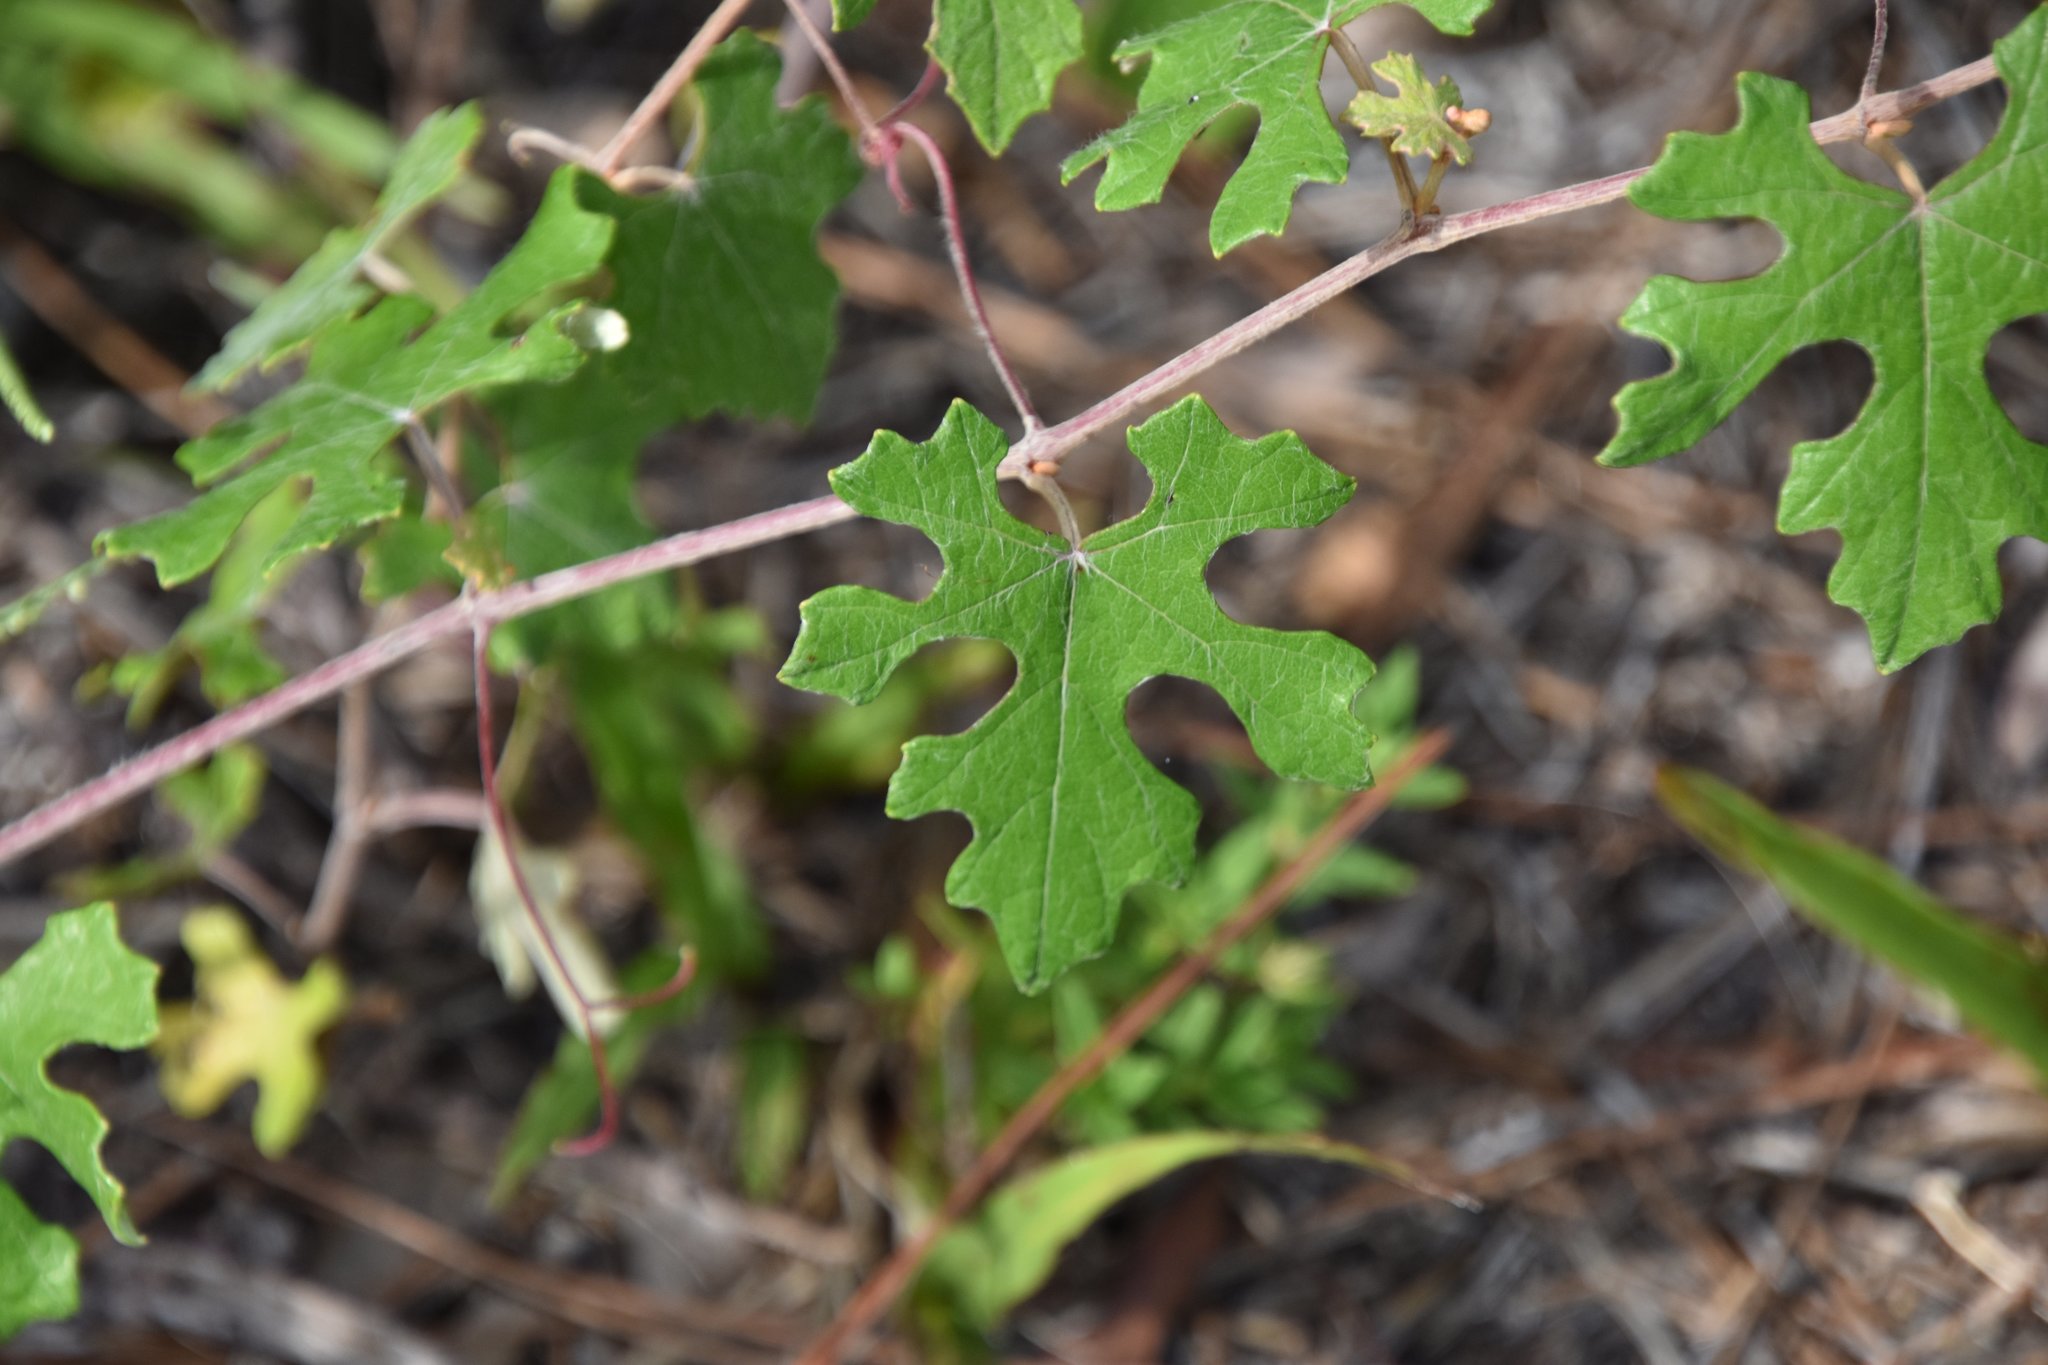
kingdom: Plantae
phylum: Tracheophyta
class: Magnoliopsida
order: Vitales
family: Vitaceae
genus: Vitis
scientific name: Vitis aestivalis
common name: Pigeon grape
